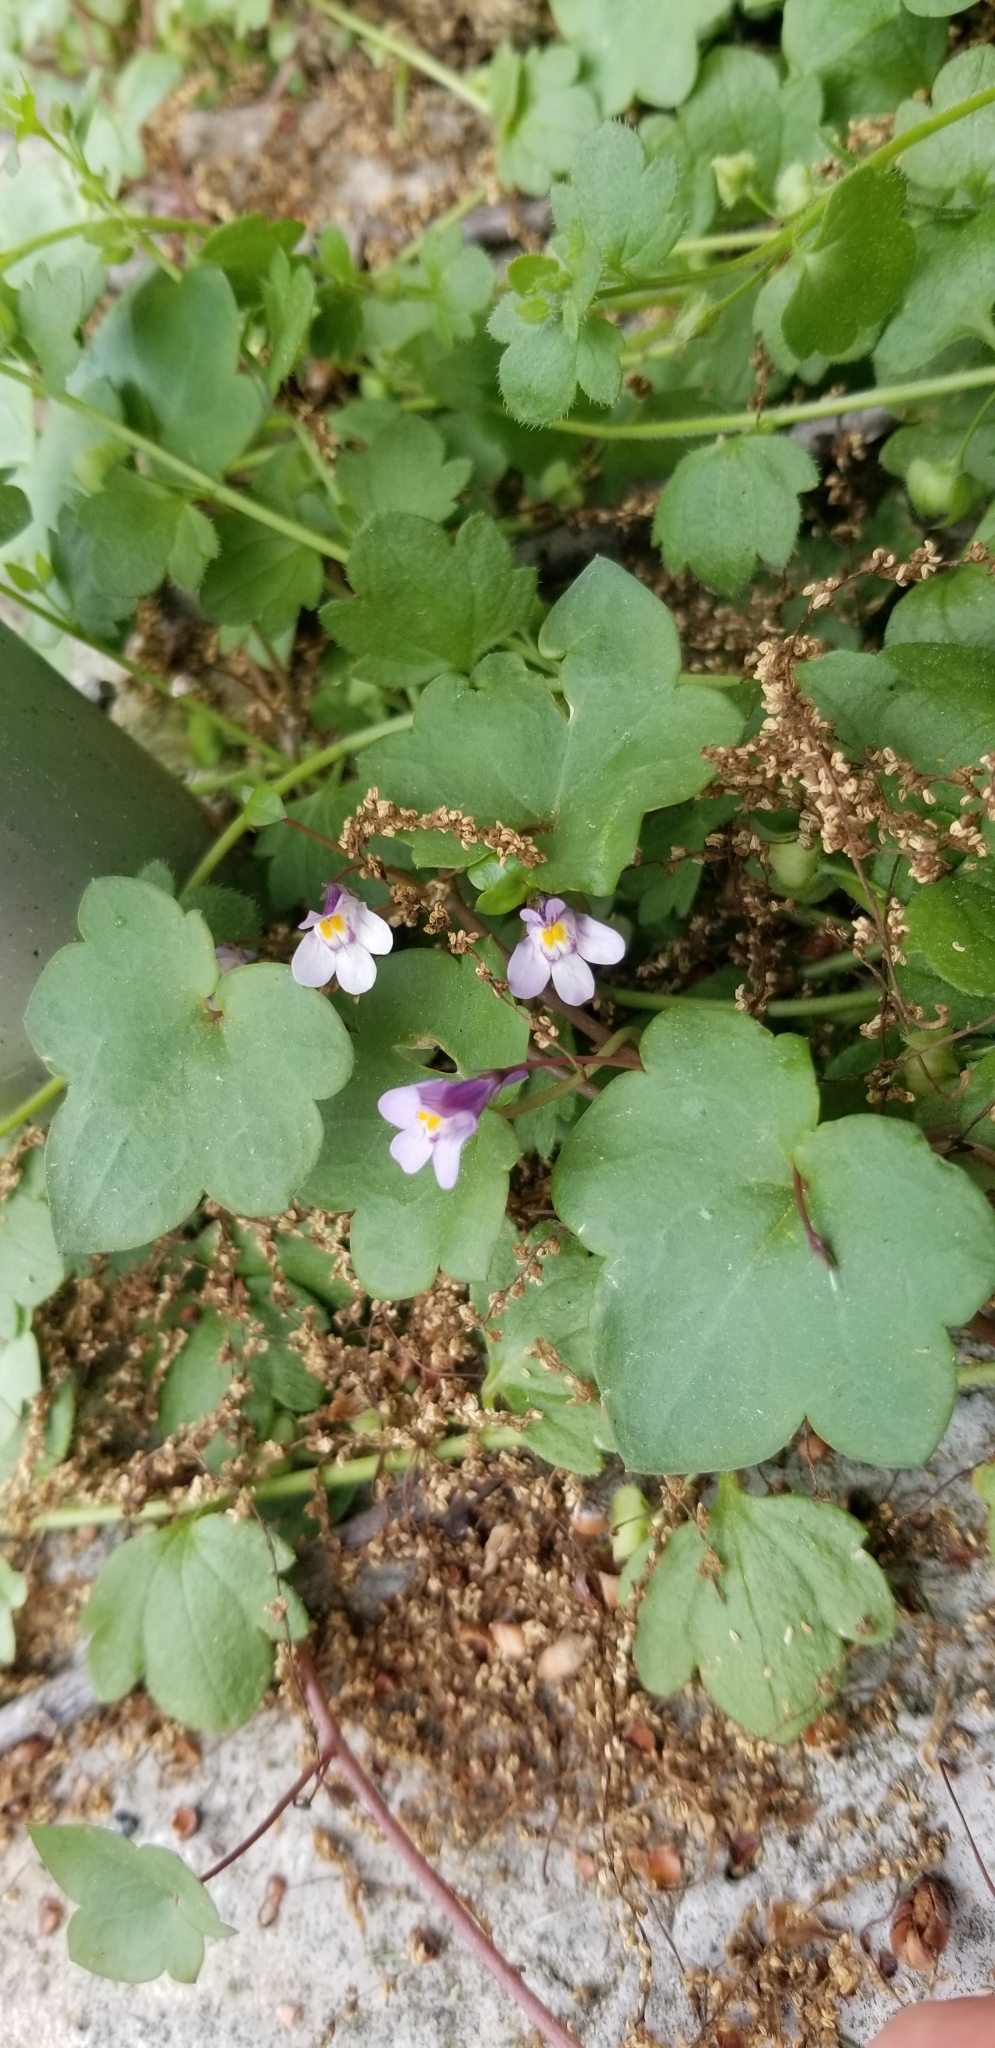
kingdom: Plantae
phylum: Tracheophyta
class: Magnoliopsida
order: Lamiales
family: Plantaginaceae
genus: Cymbalaria
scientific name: Cymbalaria muralis
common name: Ivy-leaved toadflax
